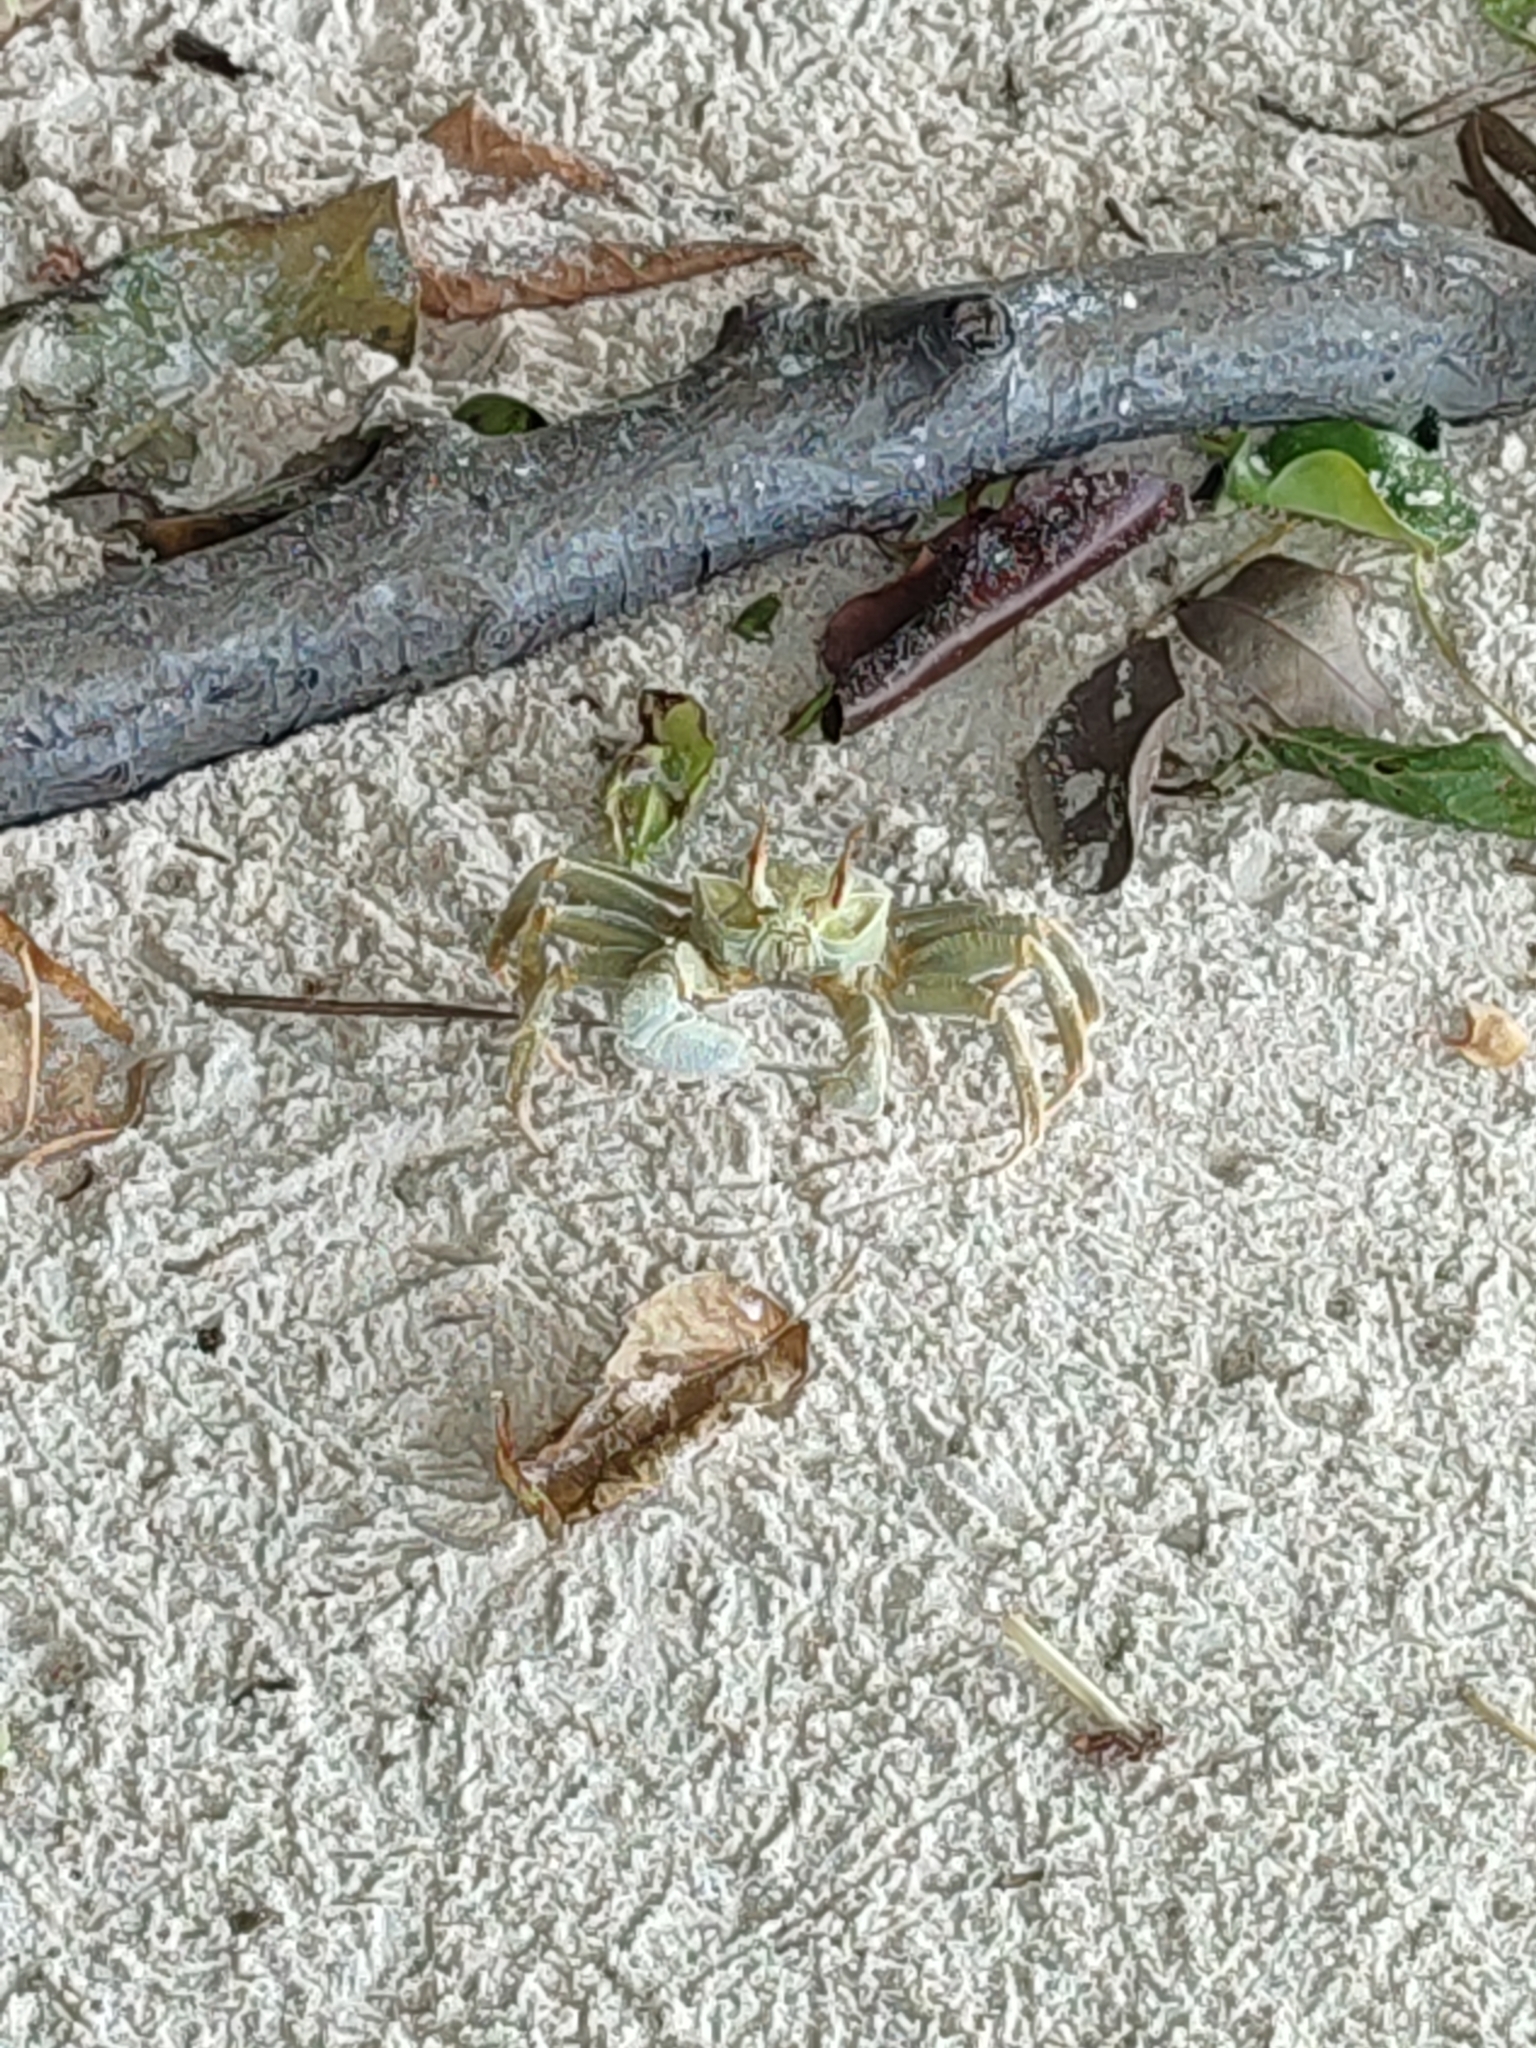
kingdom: Animalia
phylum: Arthropoda
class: Malacostraca
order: Decapoda
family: Ocypodidae
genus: Ocypode
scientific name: Ocypode ceratophthalmus
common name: Indo-pacific ghost crab
